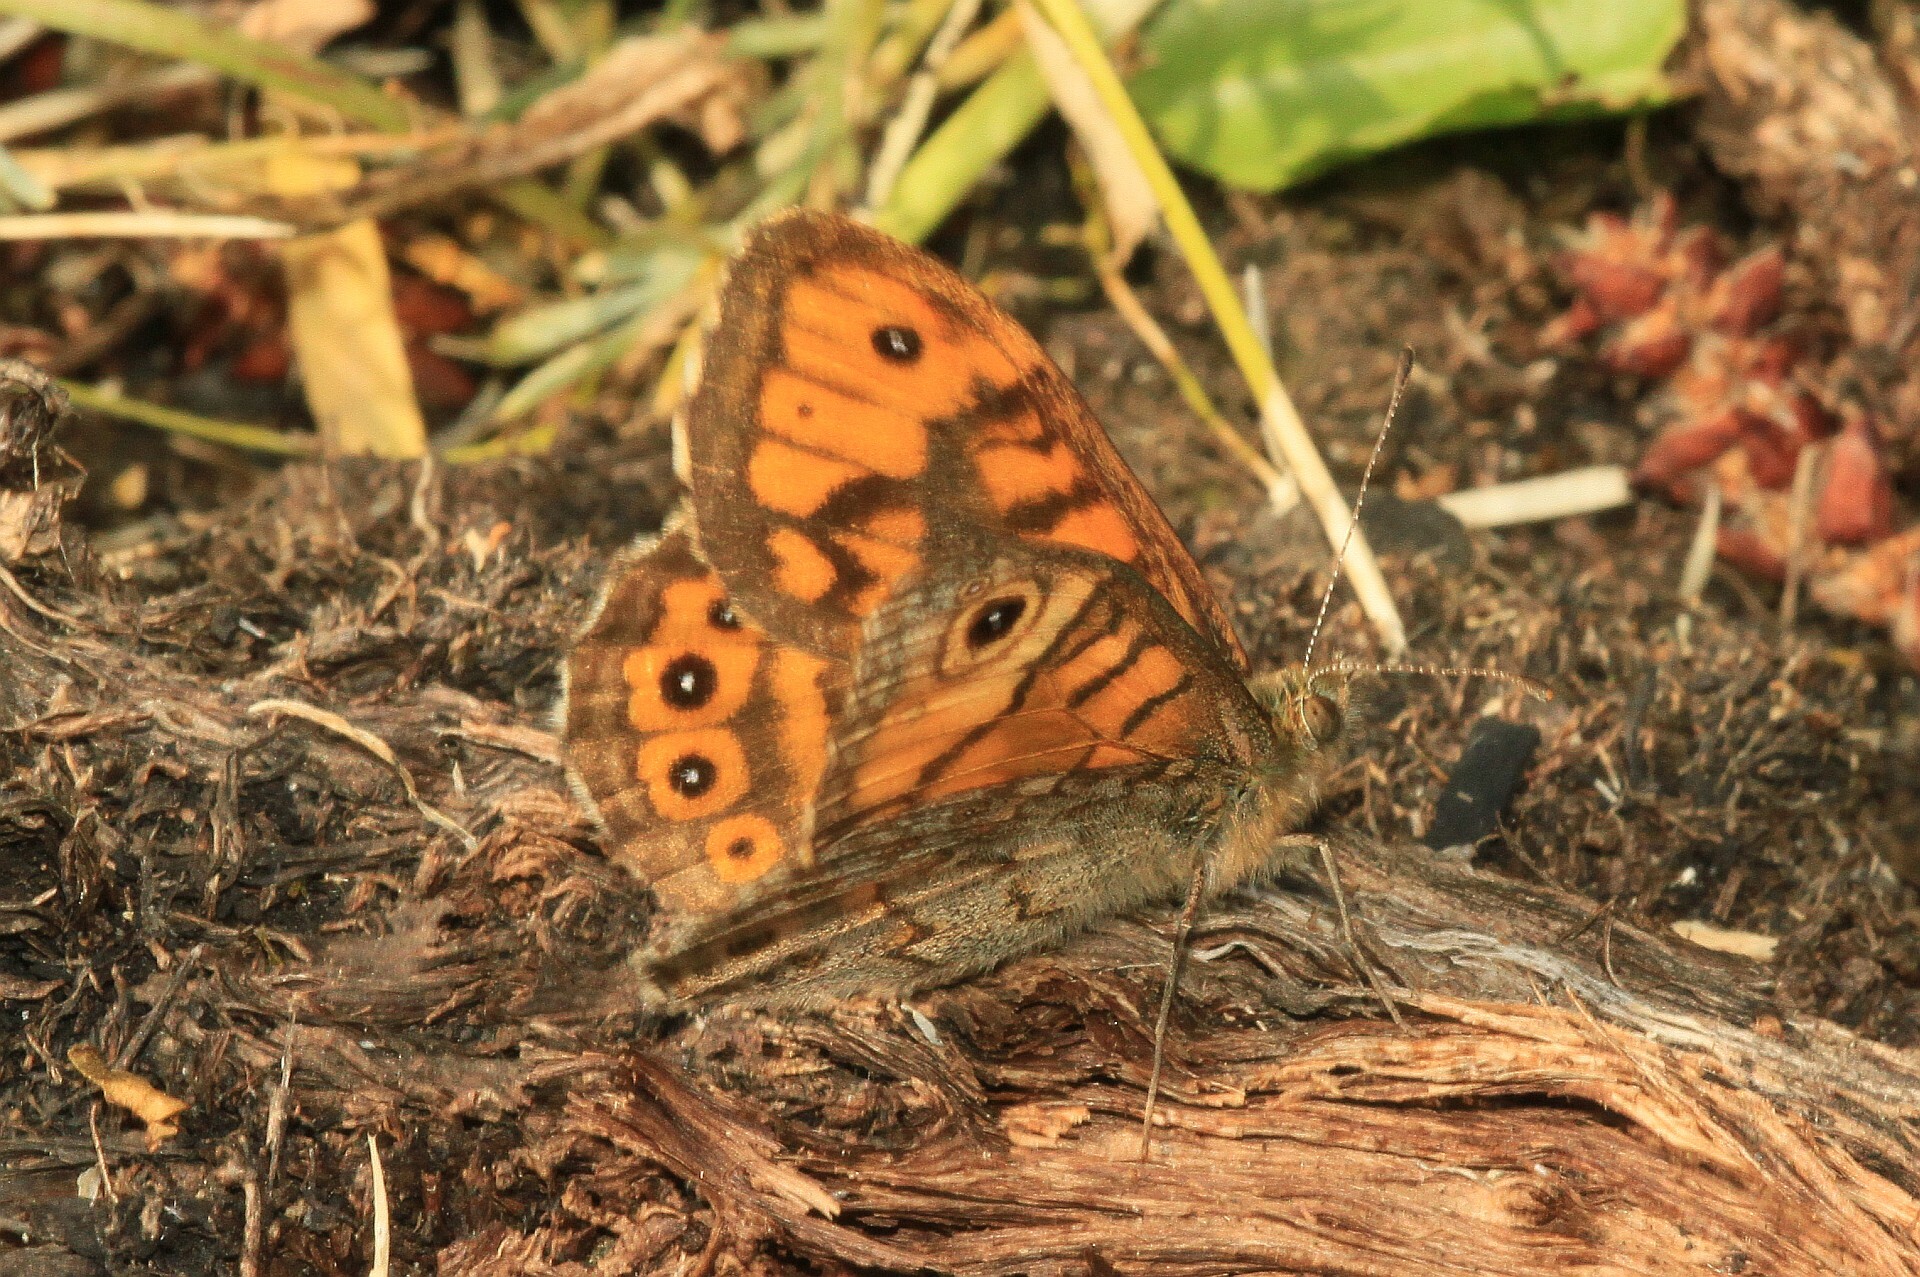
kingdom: Animalia
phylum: Arthropoda
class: Insecta
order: Lepidoptera
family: Nymphalidae
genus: Pararge
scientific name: Pararge Lasiommata megera
